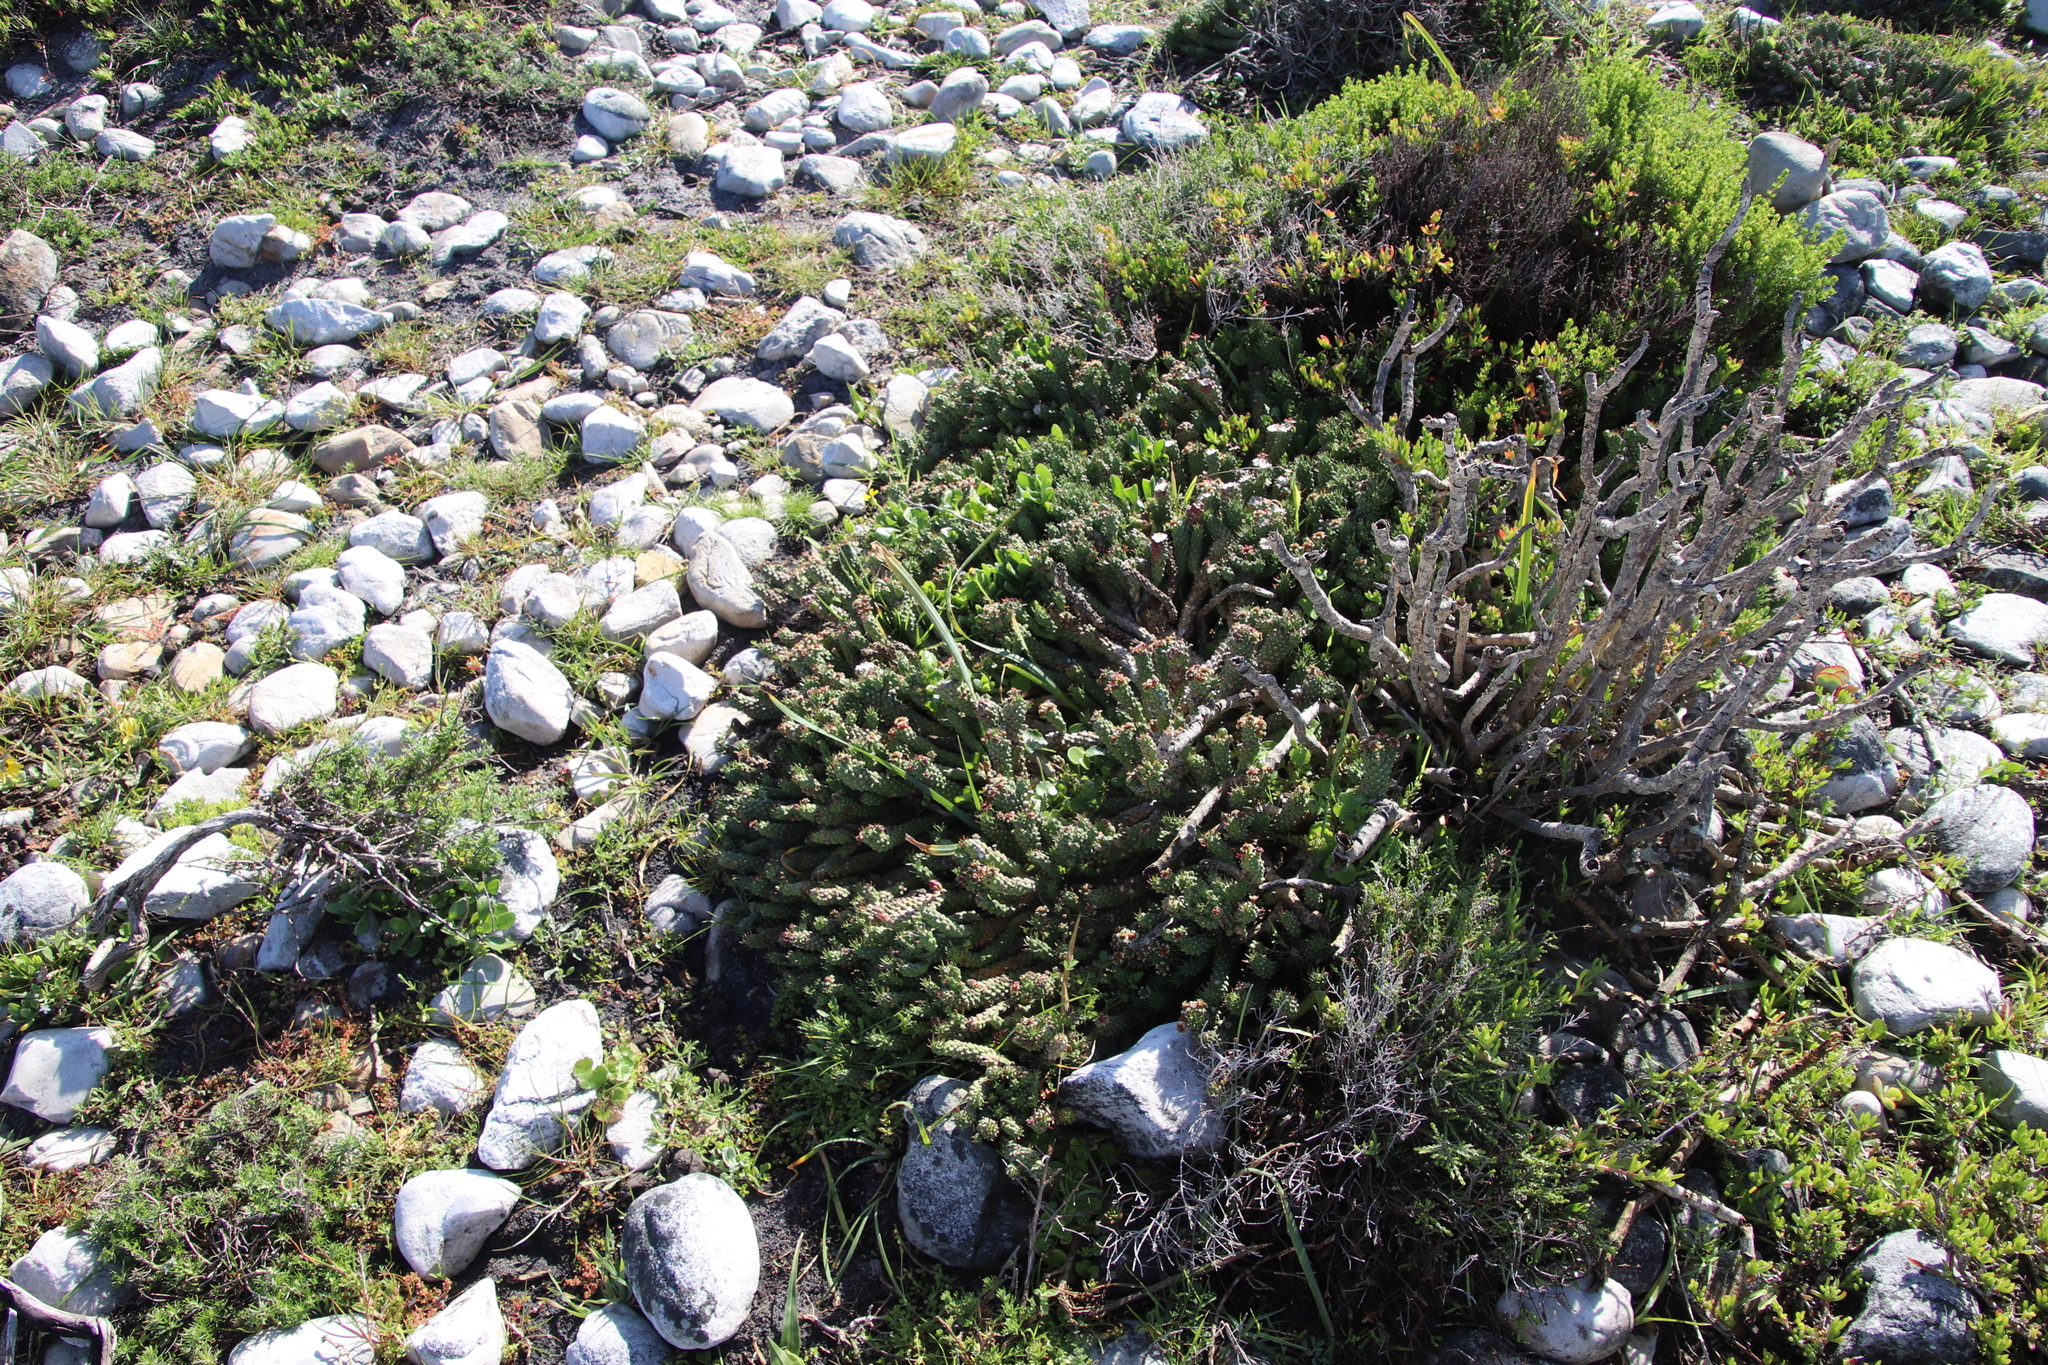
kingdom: Plantae
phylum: Tracheophyta
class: Magnoliopsida
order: Malpighiales
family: Euphorbiaceae
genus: Euphorbia
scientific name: Euphorbia caput-medusae
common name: Medusa's-head
